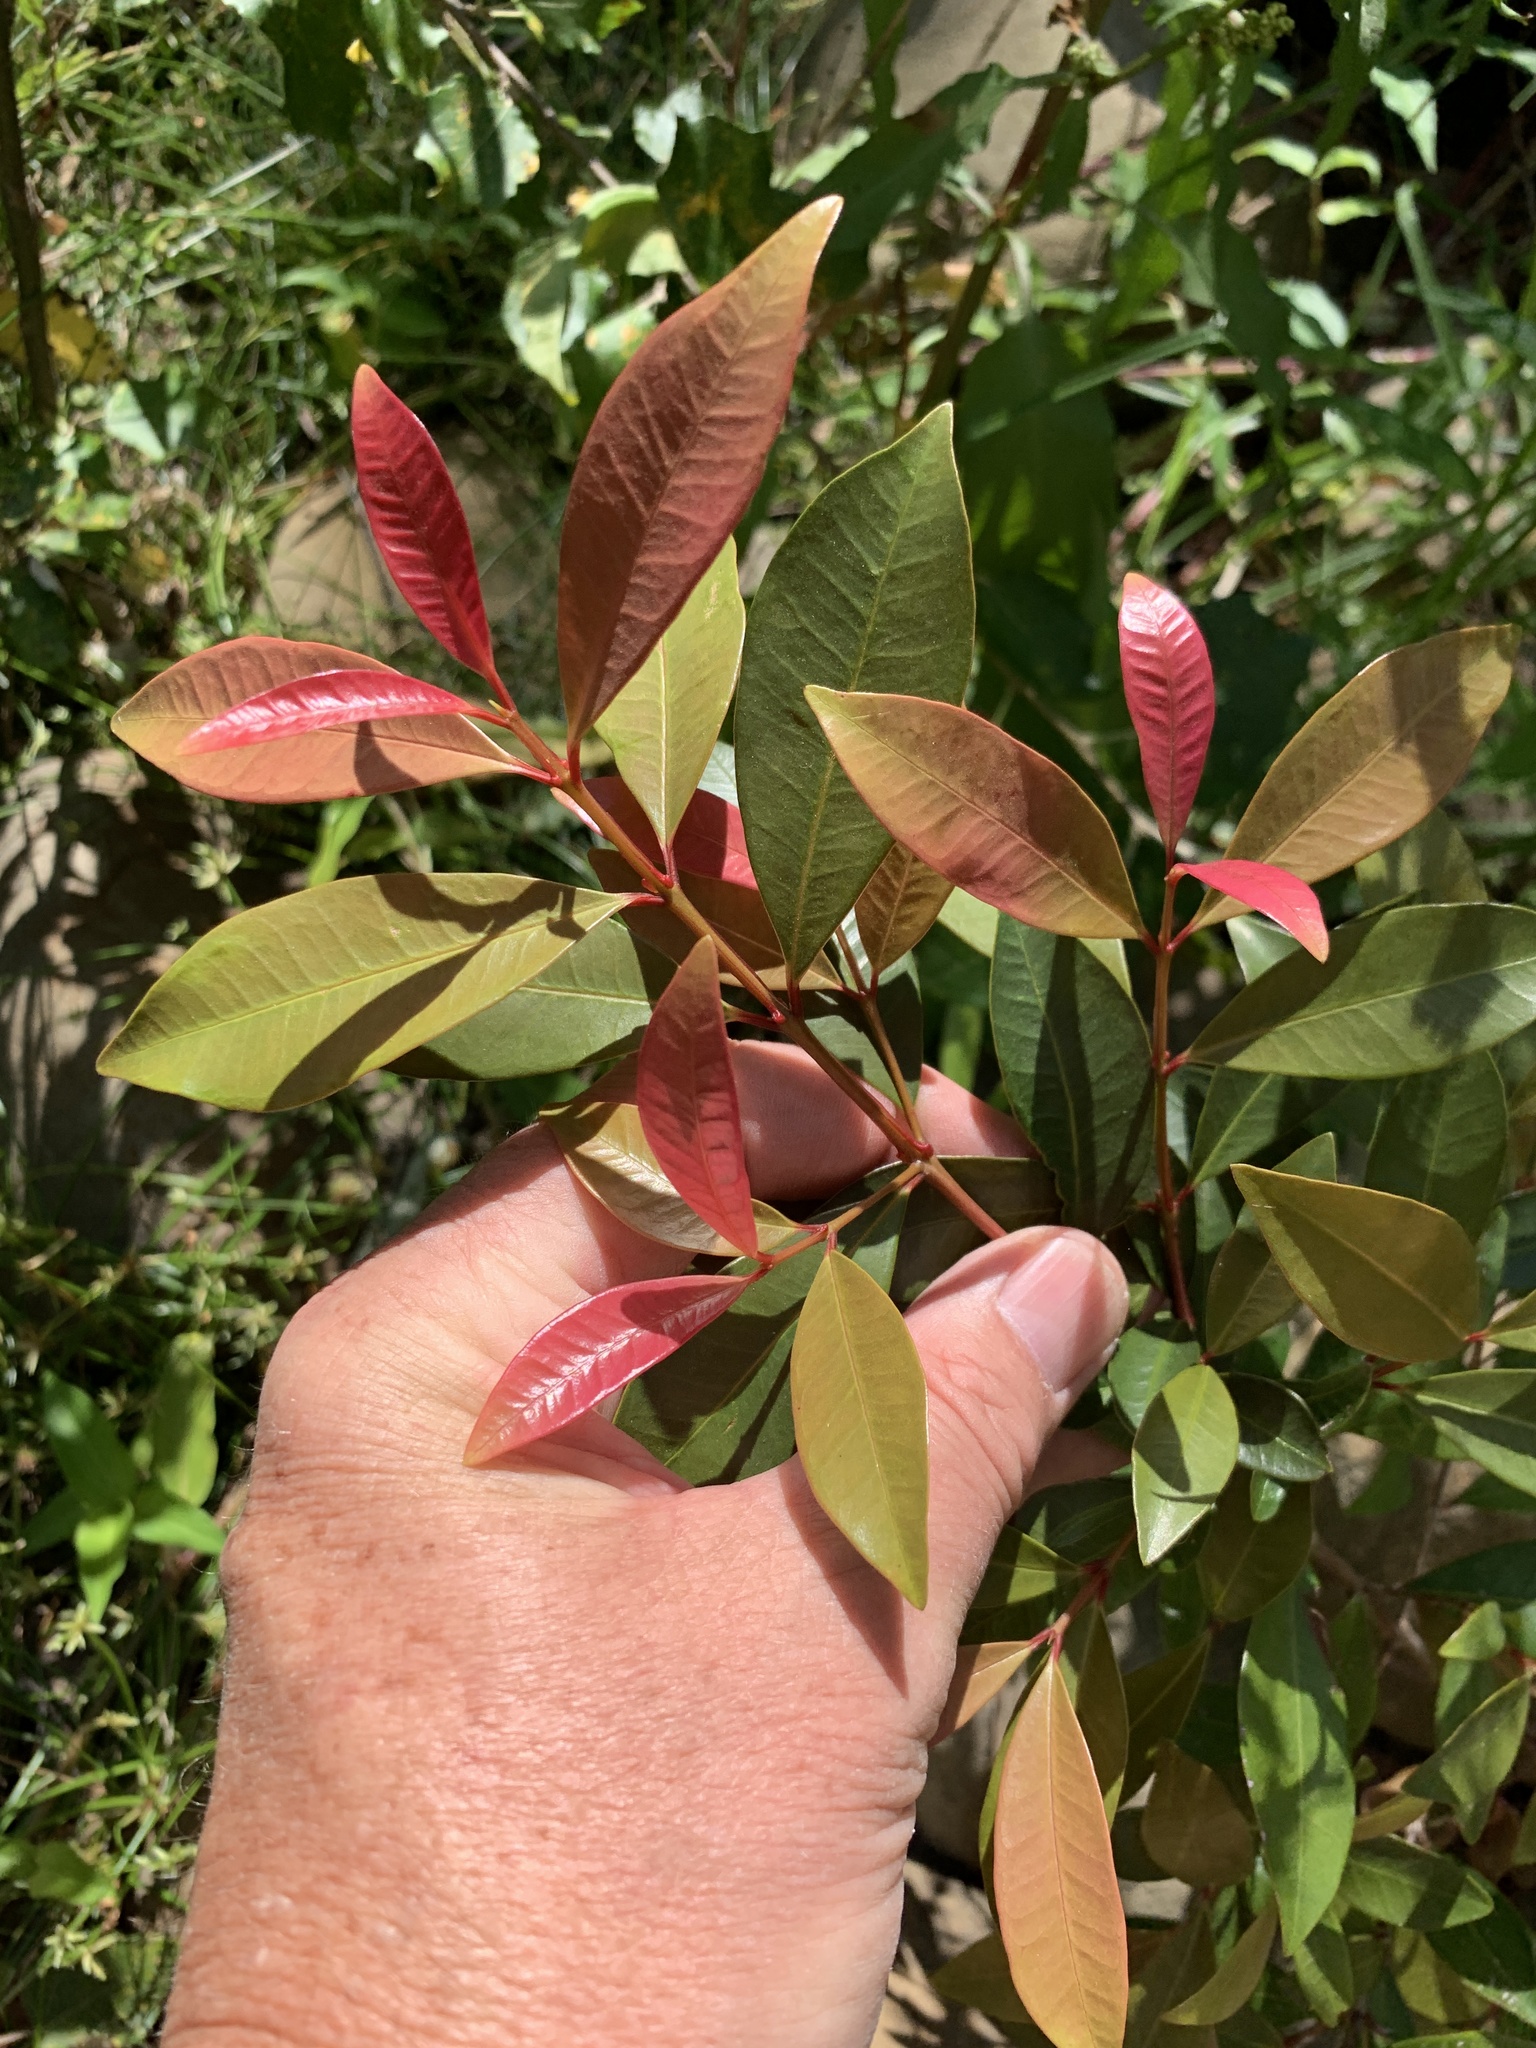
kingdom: Plantae
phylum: Tracheophyta
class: Magnoliopsida
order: Myrtales
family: Myrtaceae
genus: Syzygium
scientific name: Syzygium australe
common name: Australian brush-cherry
